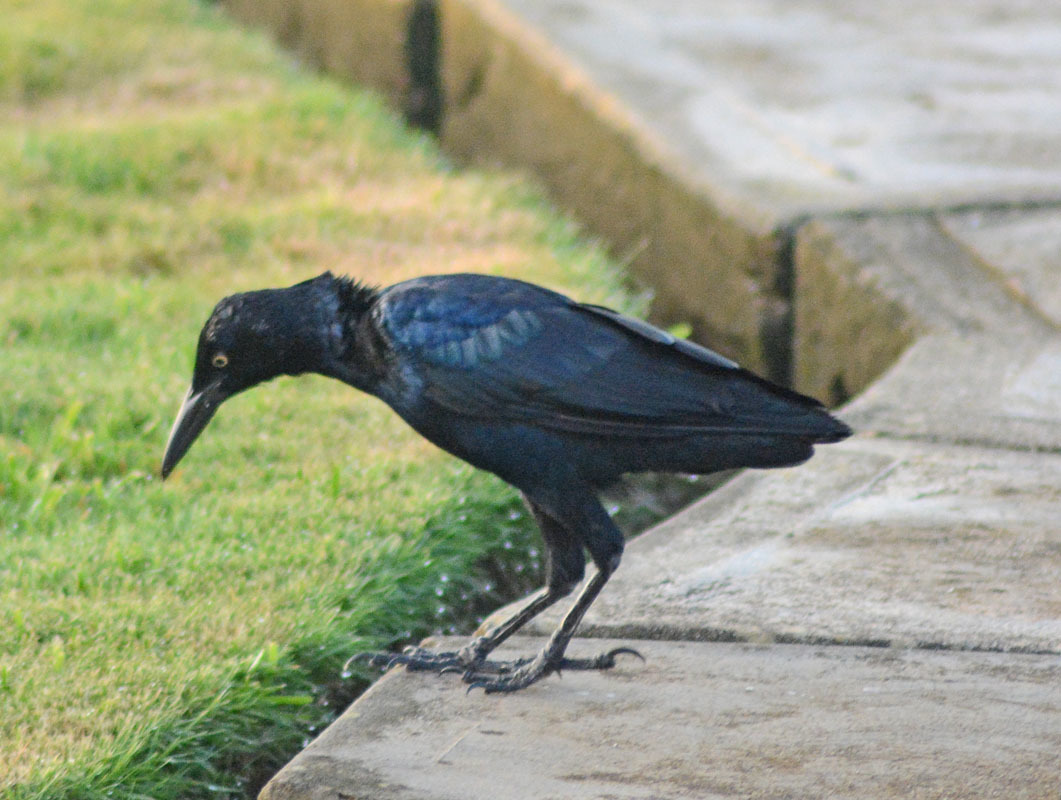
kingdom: Animalia
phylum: Chordata
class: Aves
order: Passeriformes
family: Icteridae
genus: Quiscalus
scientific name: Quiscalus mexicanus
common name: Great-tailed grackle
